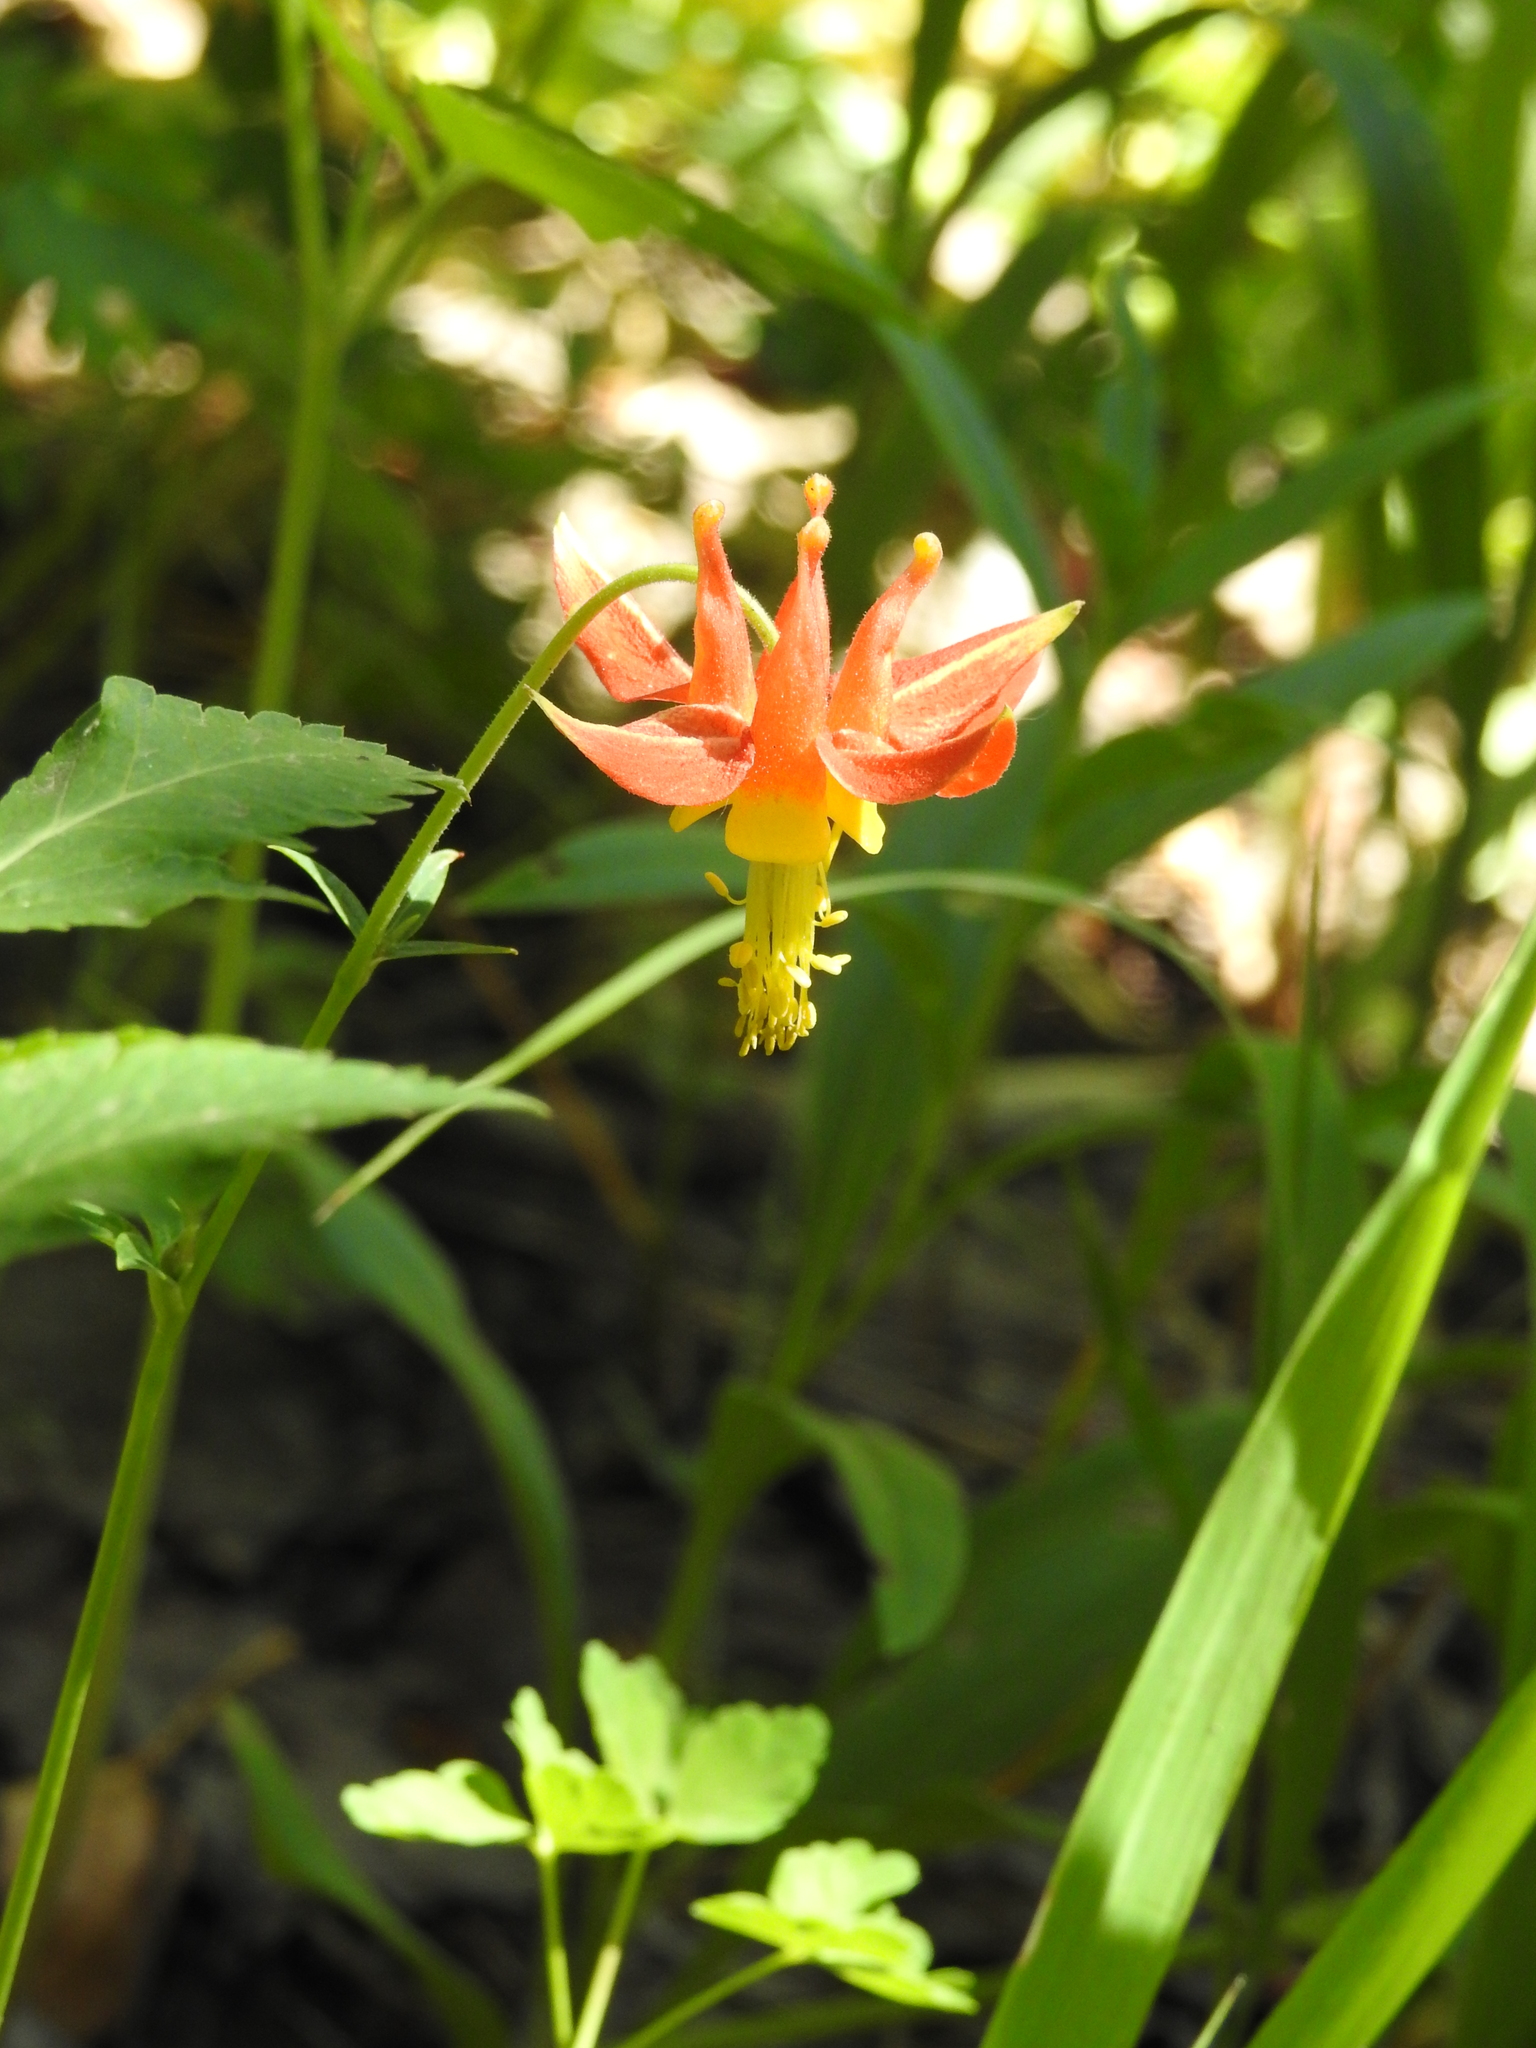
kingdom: Plantae
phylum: Tracheophyta
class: Magnoliopsida
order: Ranunculales
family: Ranunculaceae
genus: Aquilegia
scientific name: Aquilegia formosa
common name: Sitka columbine
